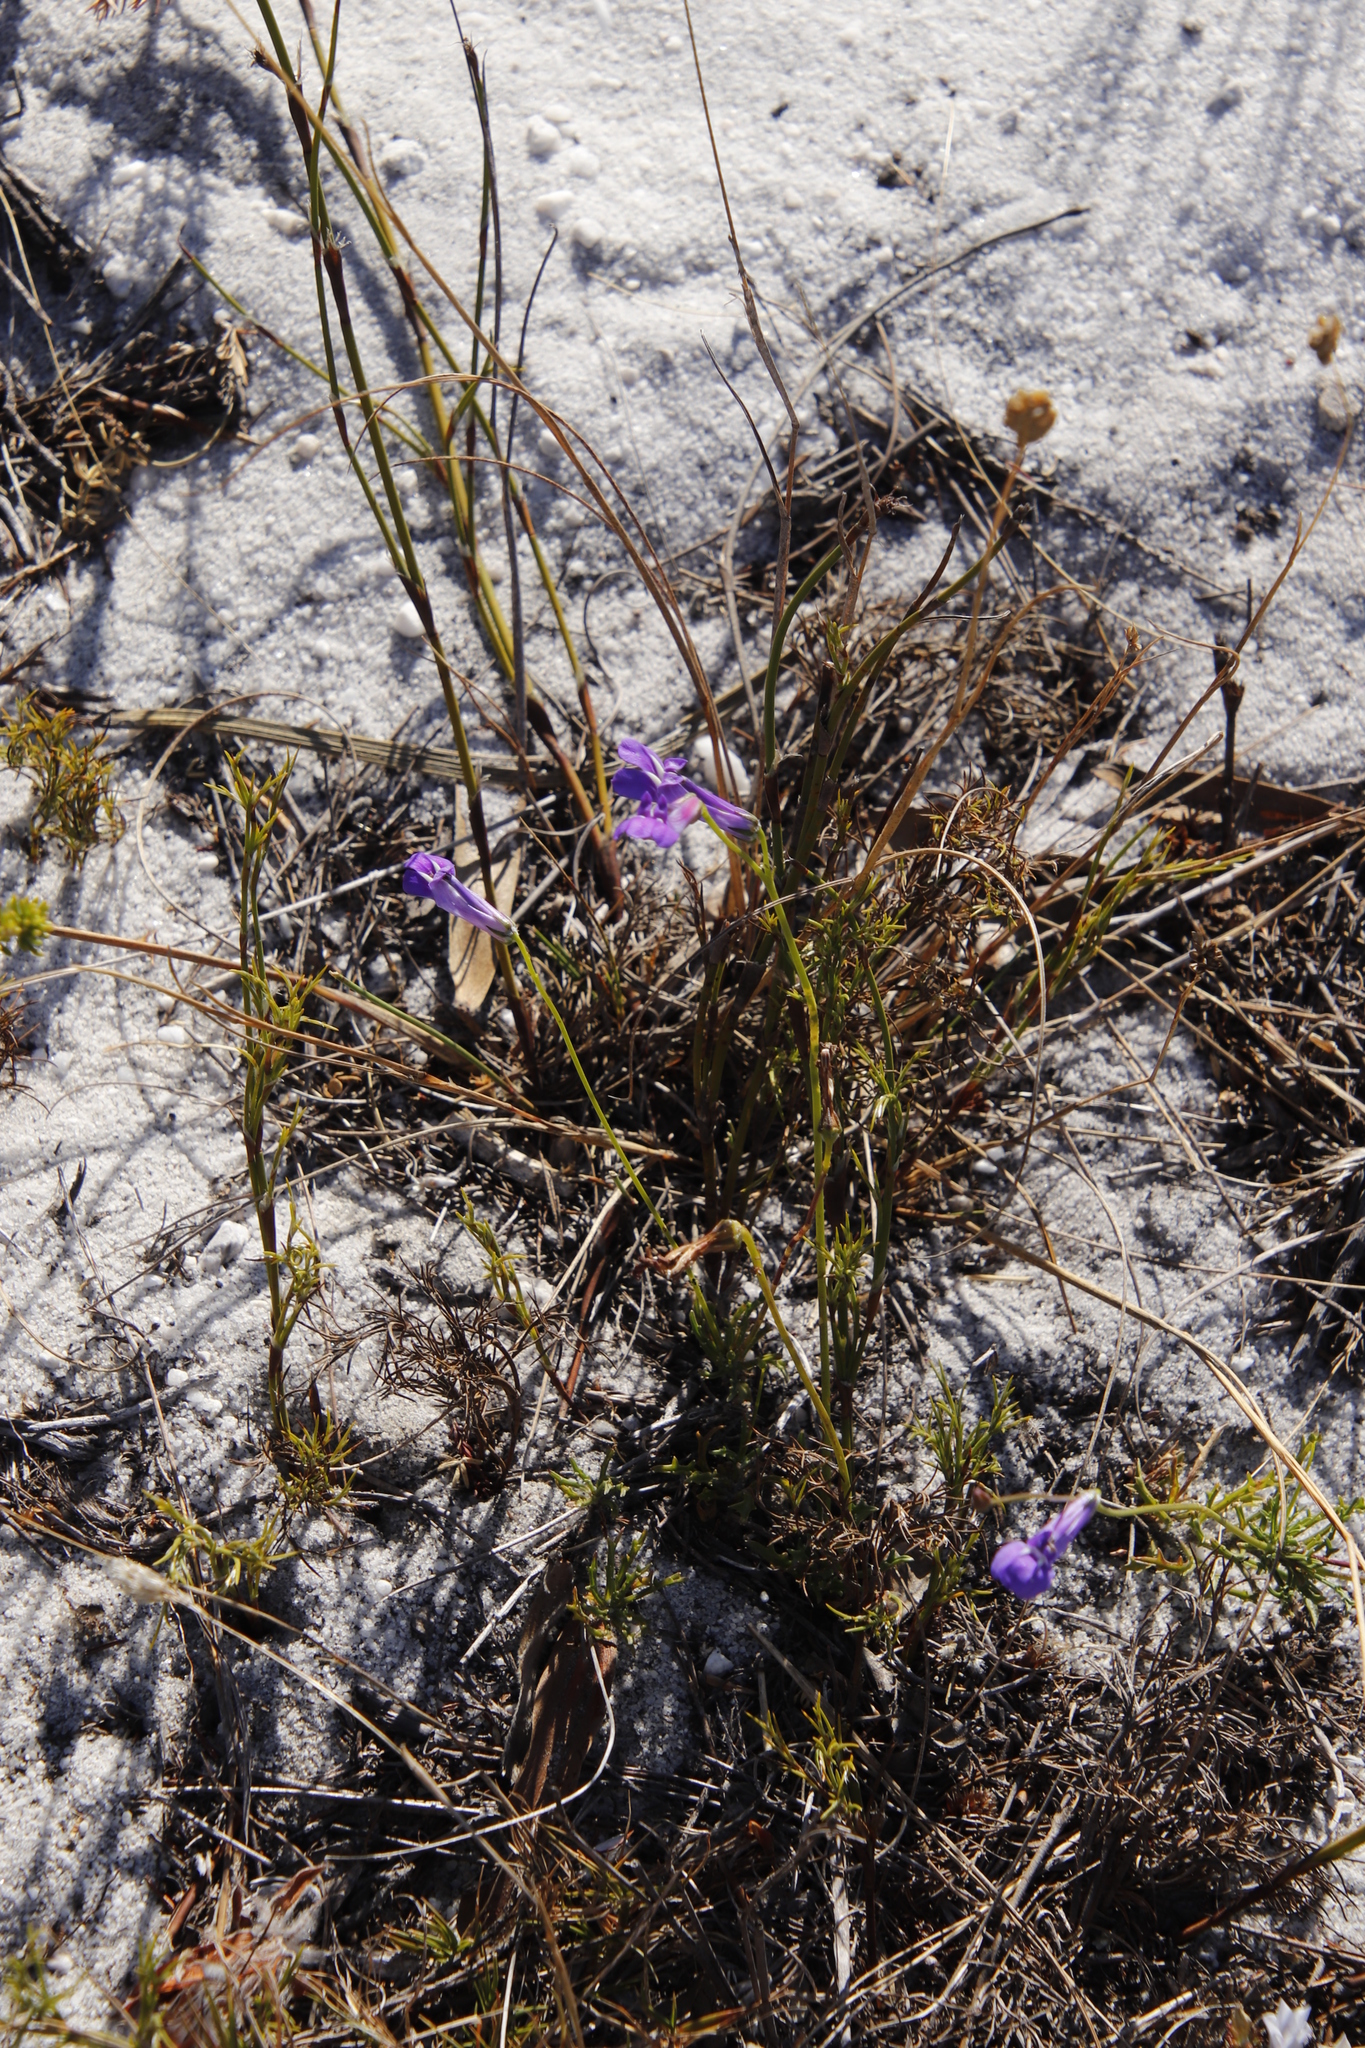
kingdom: Plantae
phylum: Tracheophyta
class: Magnoliopsida
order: Asterales
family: Campanulaceae
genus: Lobelia
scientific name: Lobelia coronopifolia
